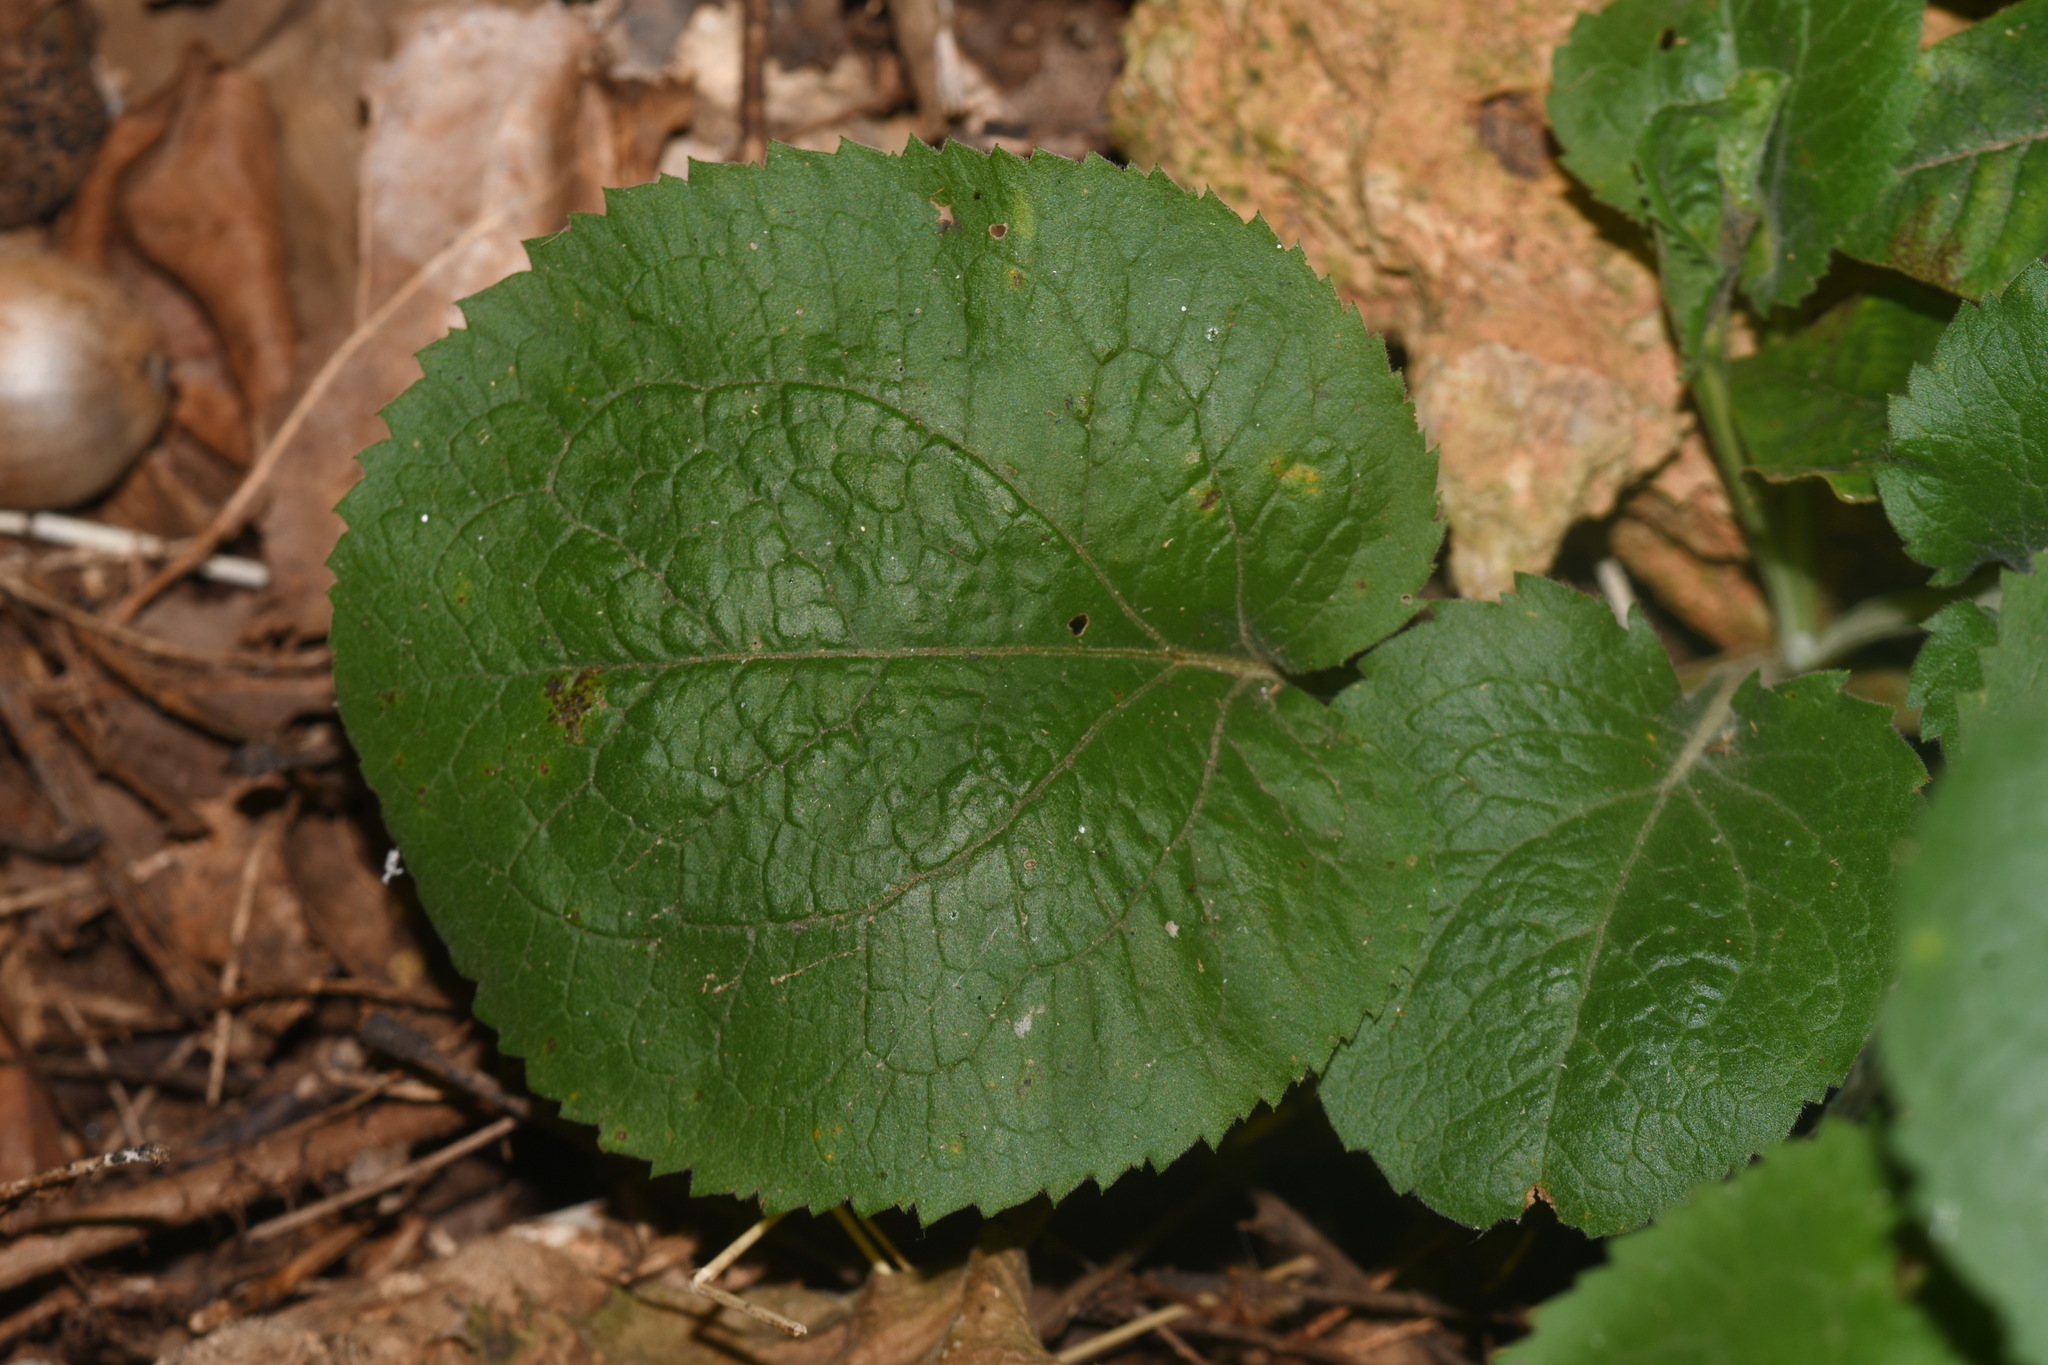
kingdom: Plantae
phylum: Tracheophyta
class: Magnoliopsida
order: Asterales
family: Asteraceae
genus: Solidago
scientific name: Solidago sphacelata
